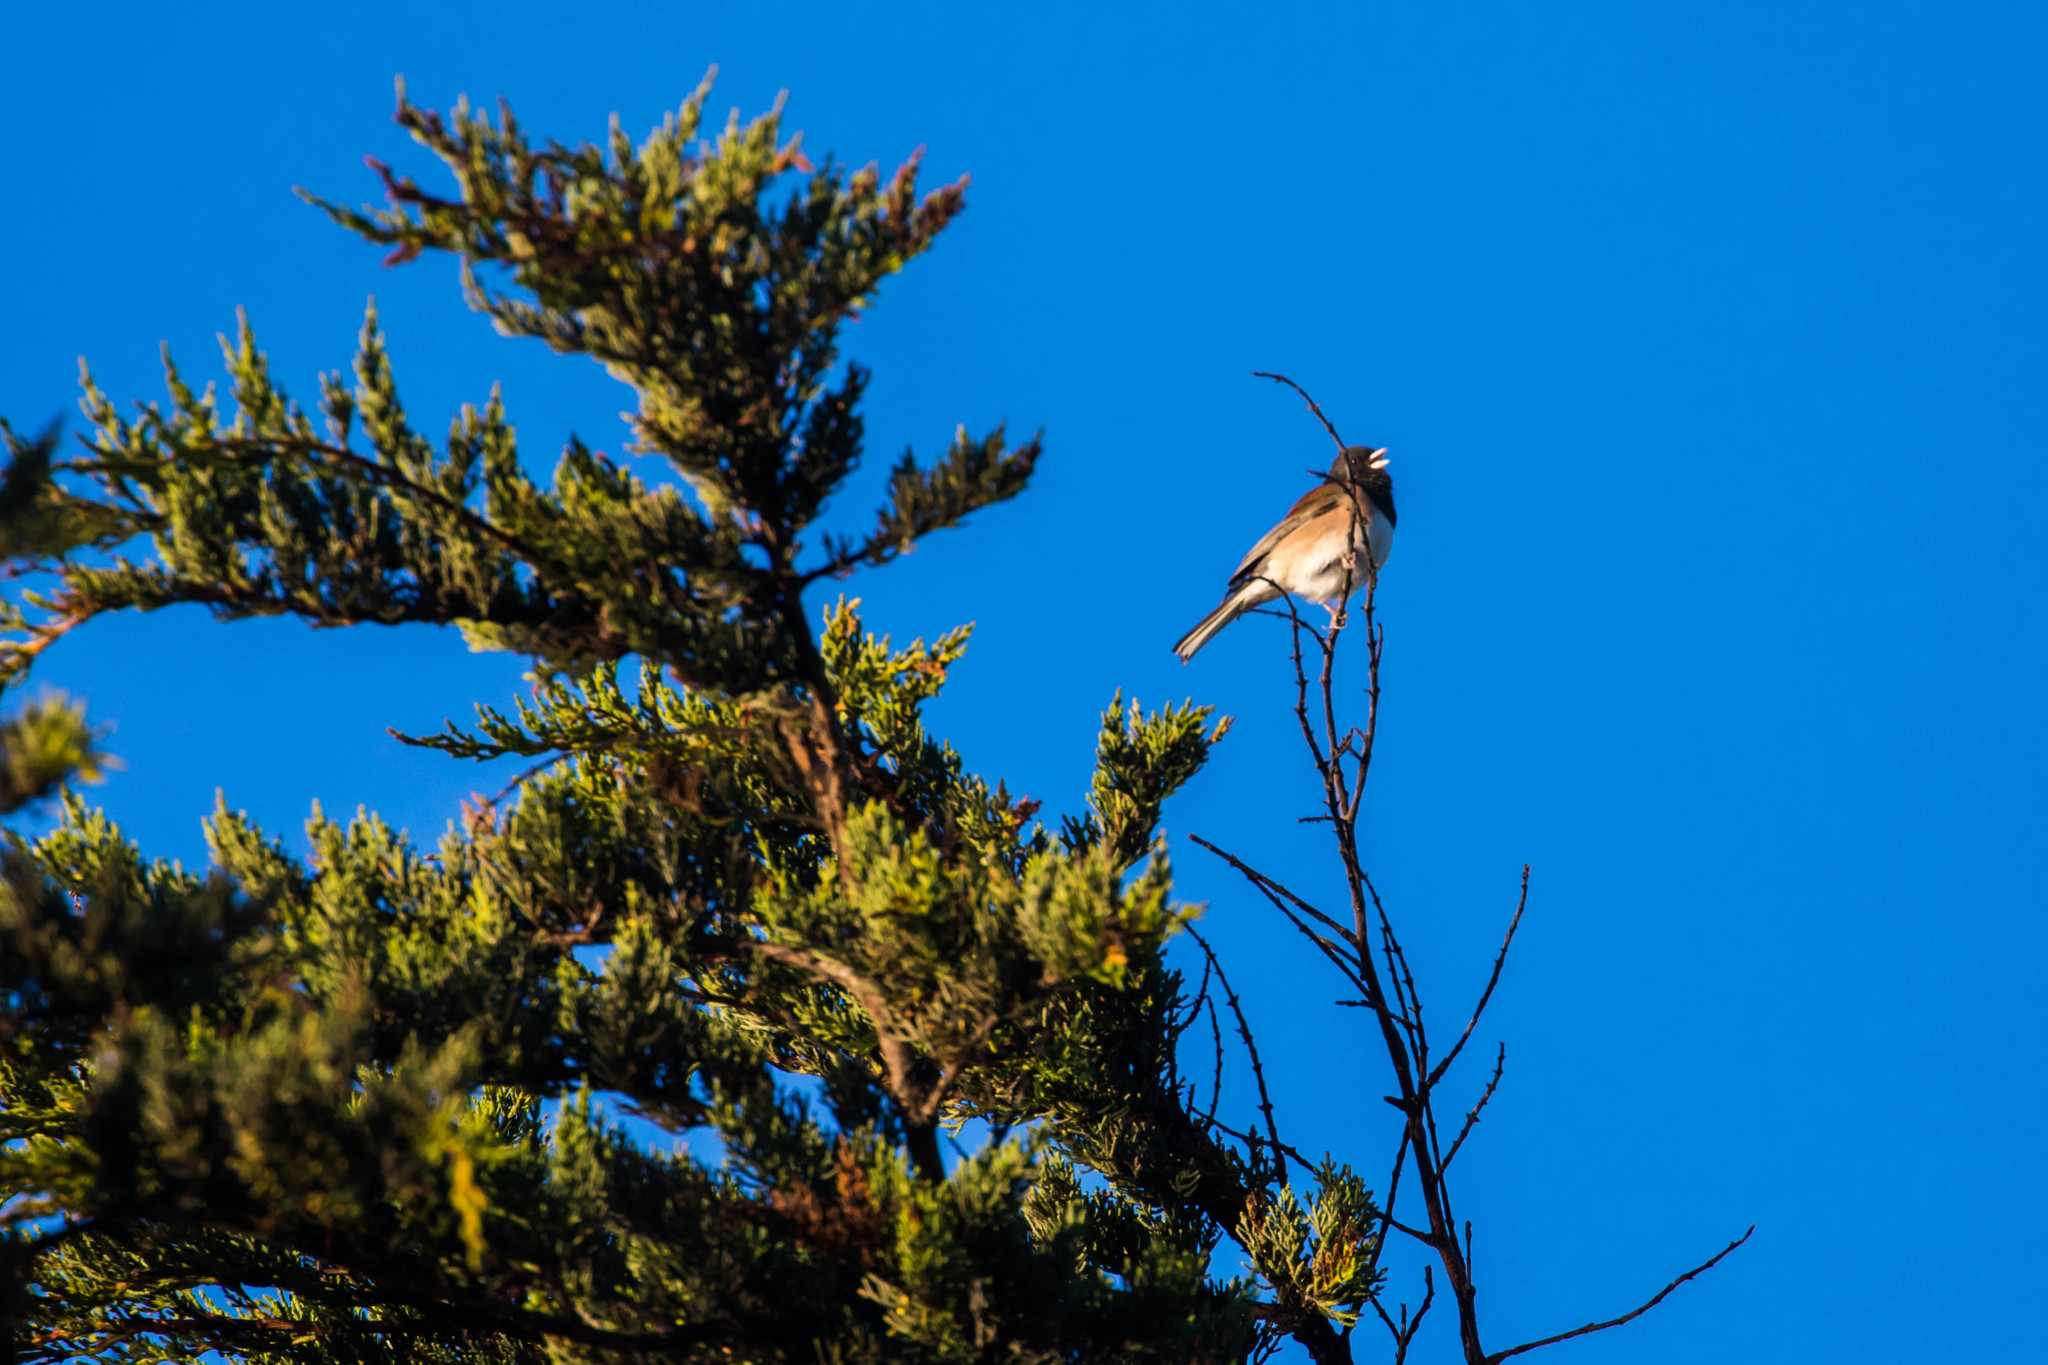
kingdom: Animalia
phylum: Chordata
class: Aves
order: Passeriformes
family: Passerellidae
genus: Junco
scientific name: Junco hyemalis
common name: Dark-eyed junco
